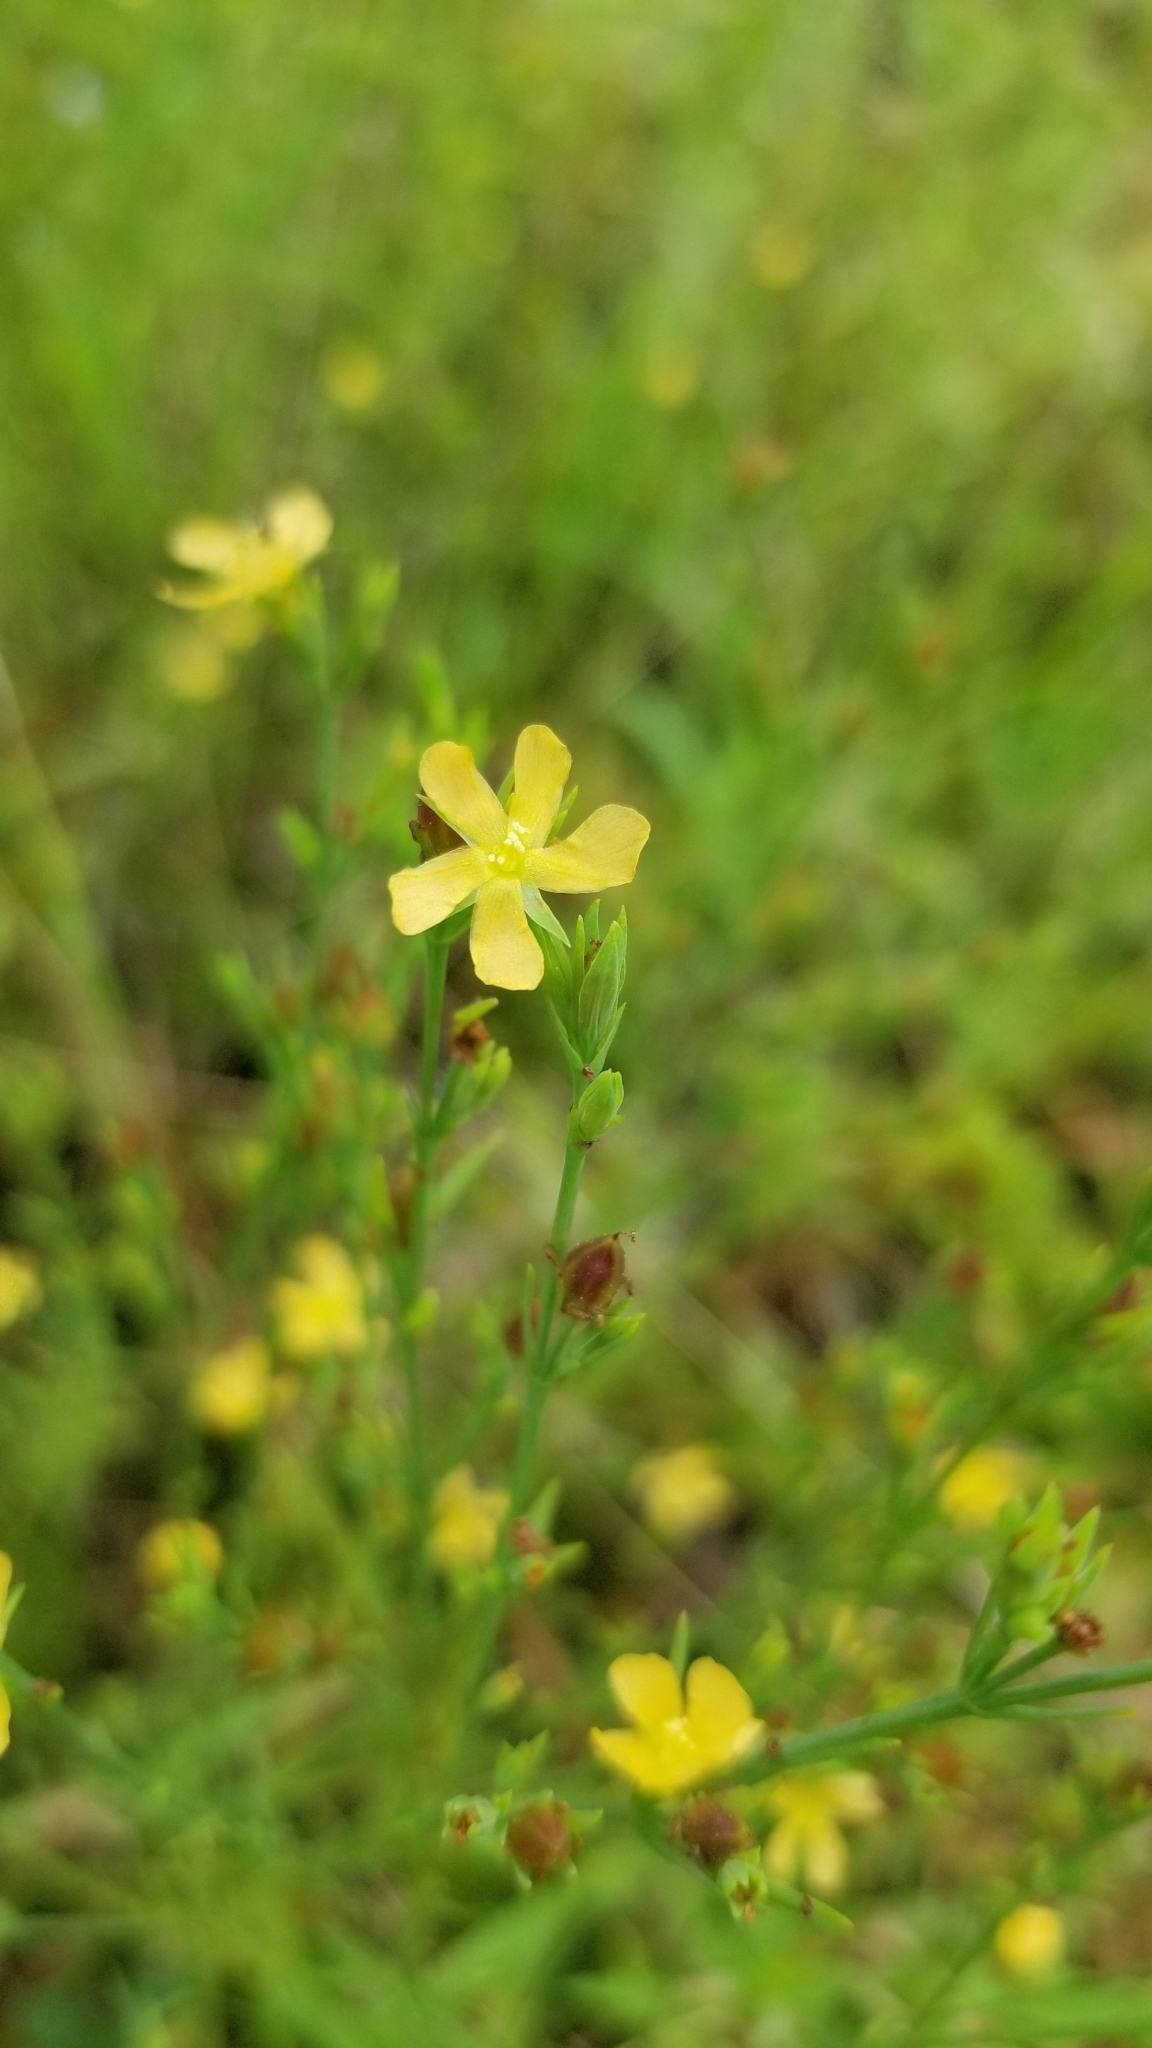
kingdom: Plantae
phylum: Tracheophyta
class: Magnoliopsida
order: Malpighiales
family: Hypericaceae
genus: Hypericum
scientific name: Hypericum gentianoides
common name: Gentian-leaved st. john's-wort
